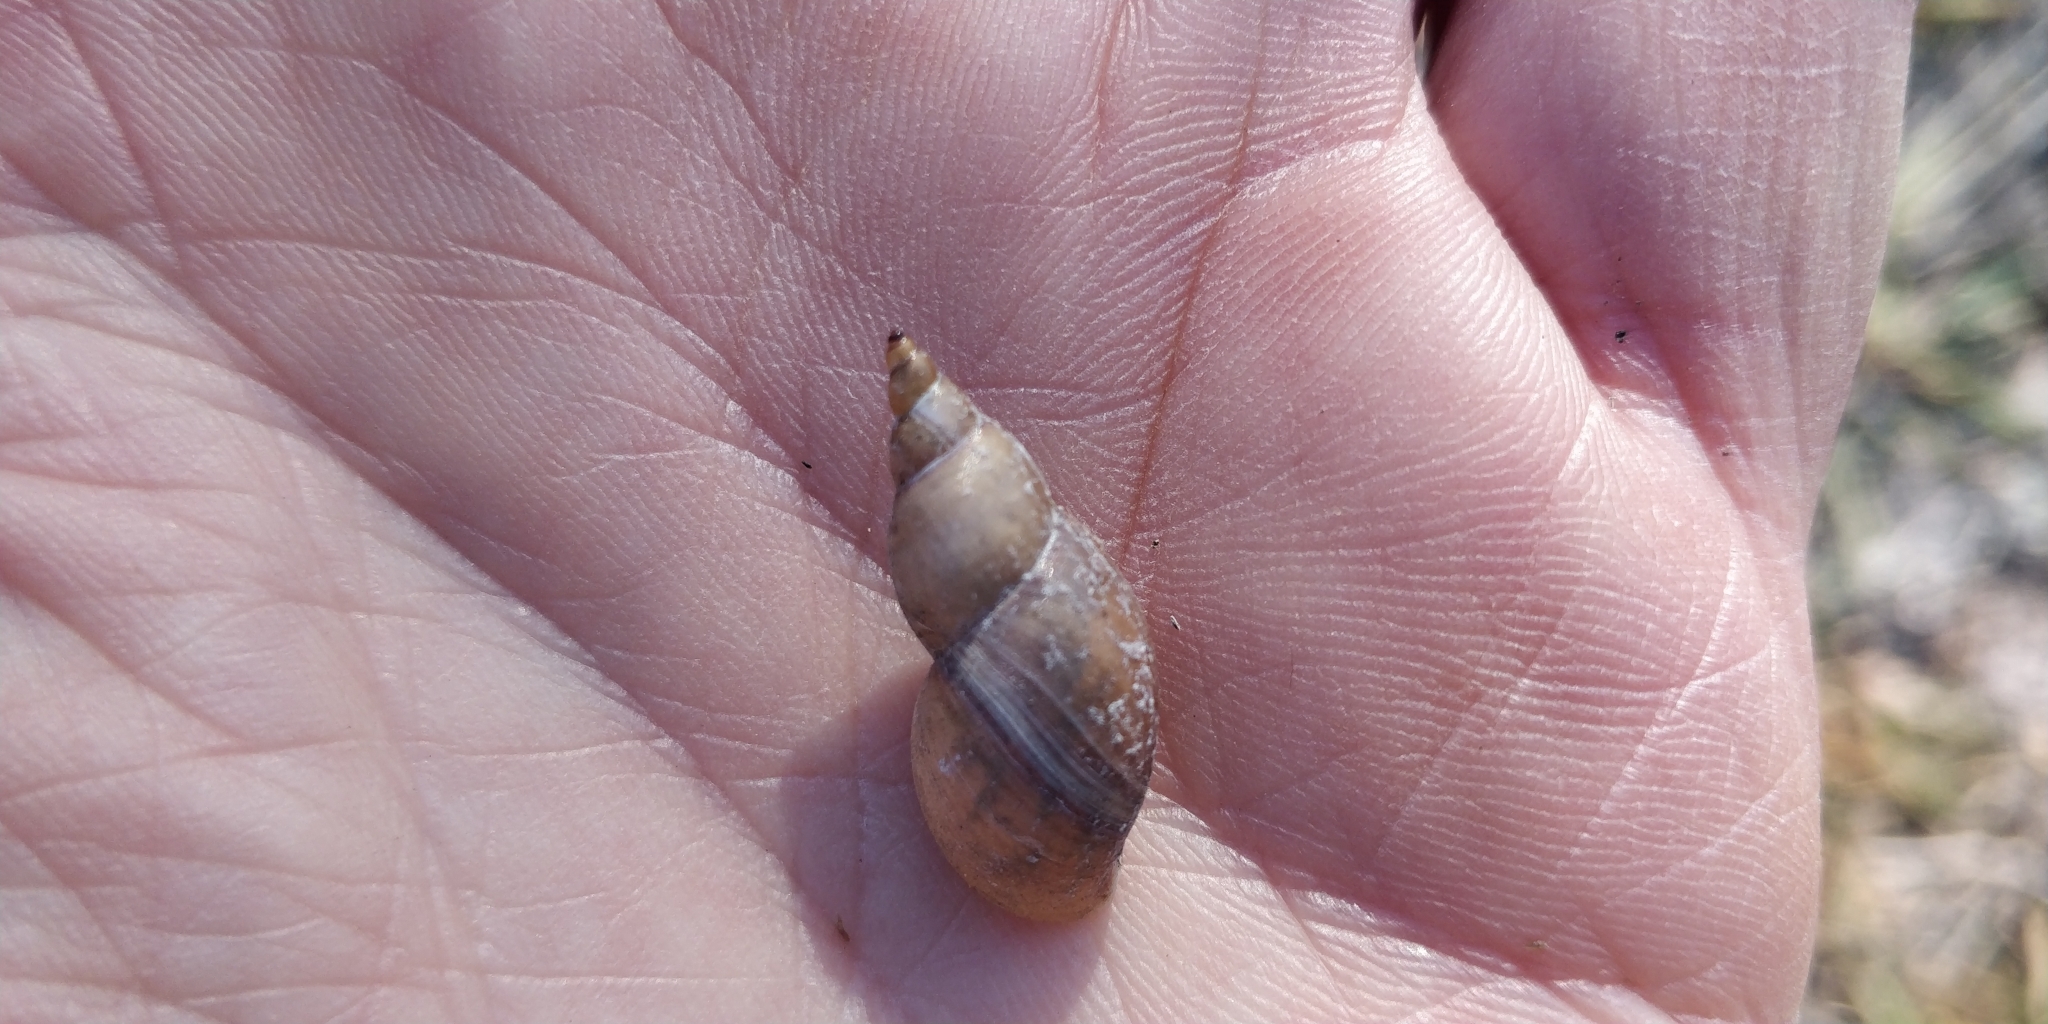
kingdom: Animalia
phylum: Mollusca
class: Gastropoda
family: Lymnaeidae
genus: Lymnaea
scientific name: Lymnaea stagnalis
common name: Great pond snail
